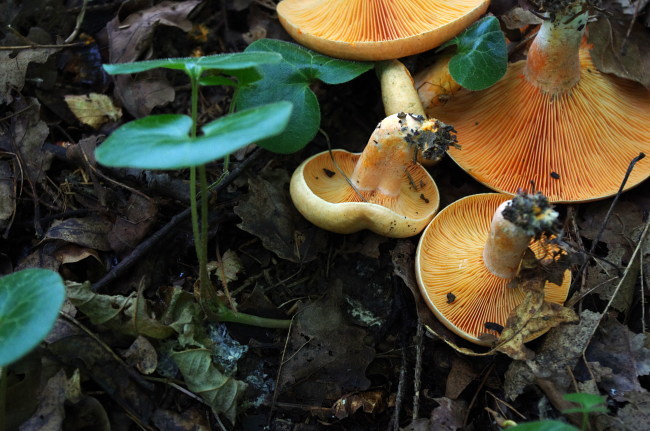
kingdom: Plantae
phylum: Tracheophyta
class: Magnoliopsida
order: Piperales
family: Aristolochiaceae
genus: Asarum
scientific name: Asarum europaeum
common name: Asarabacca
